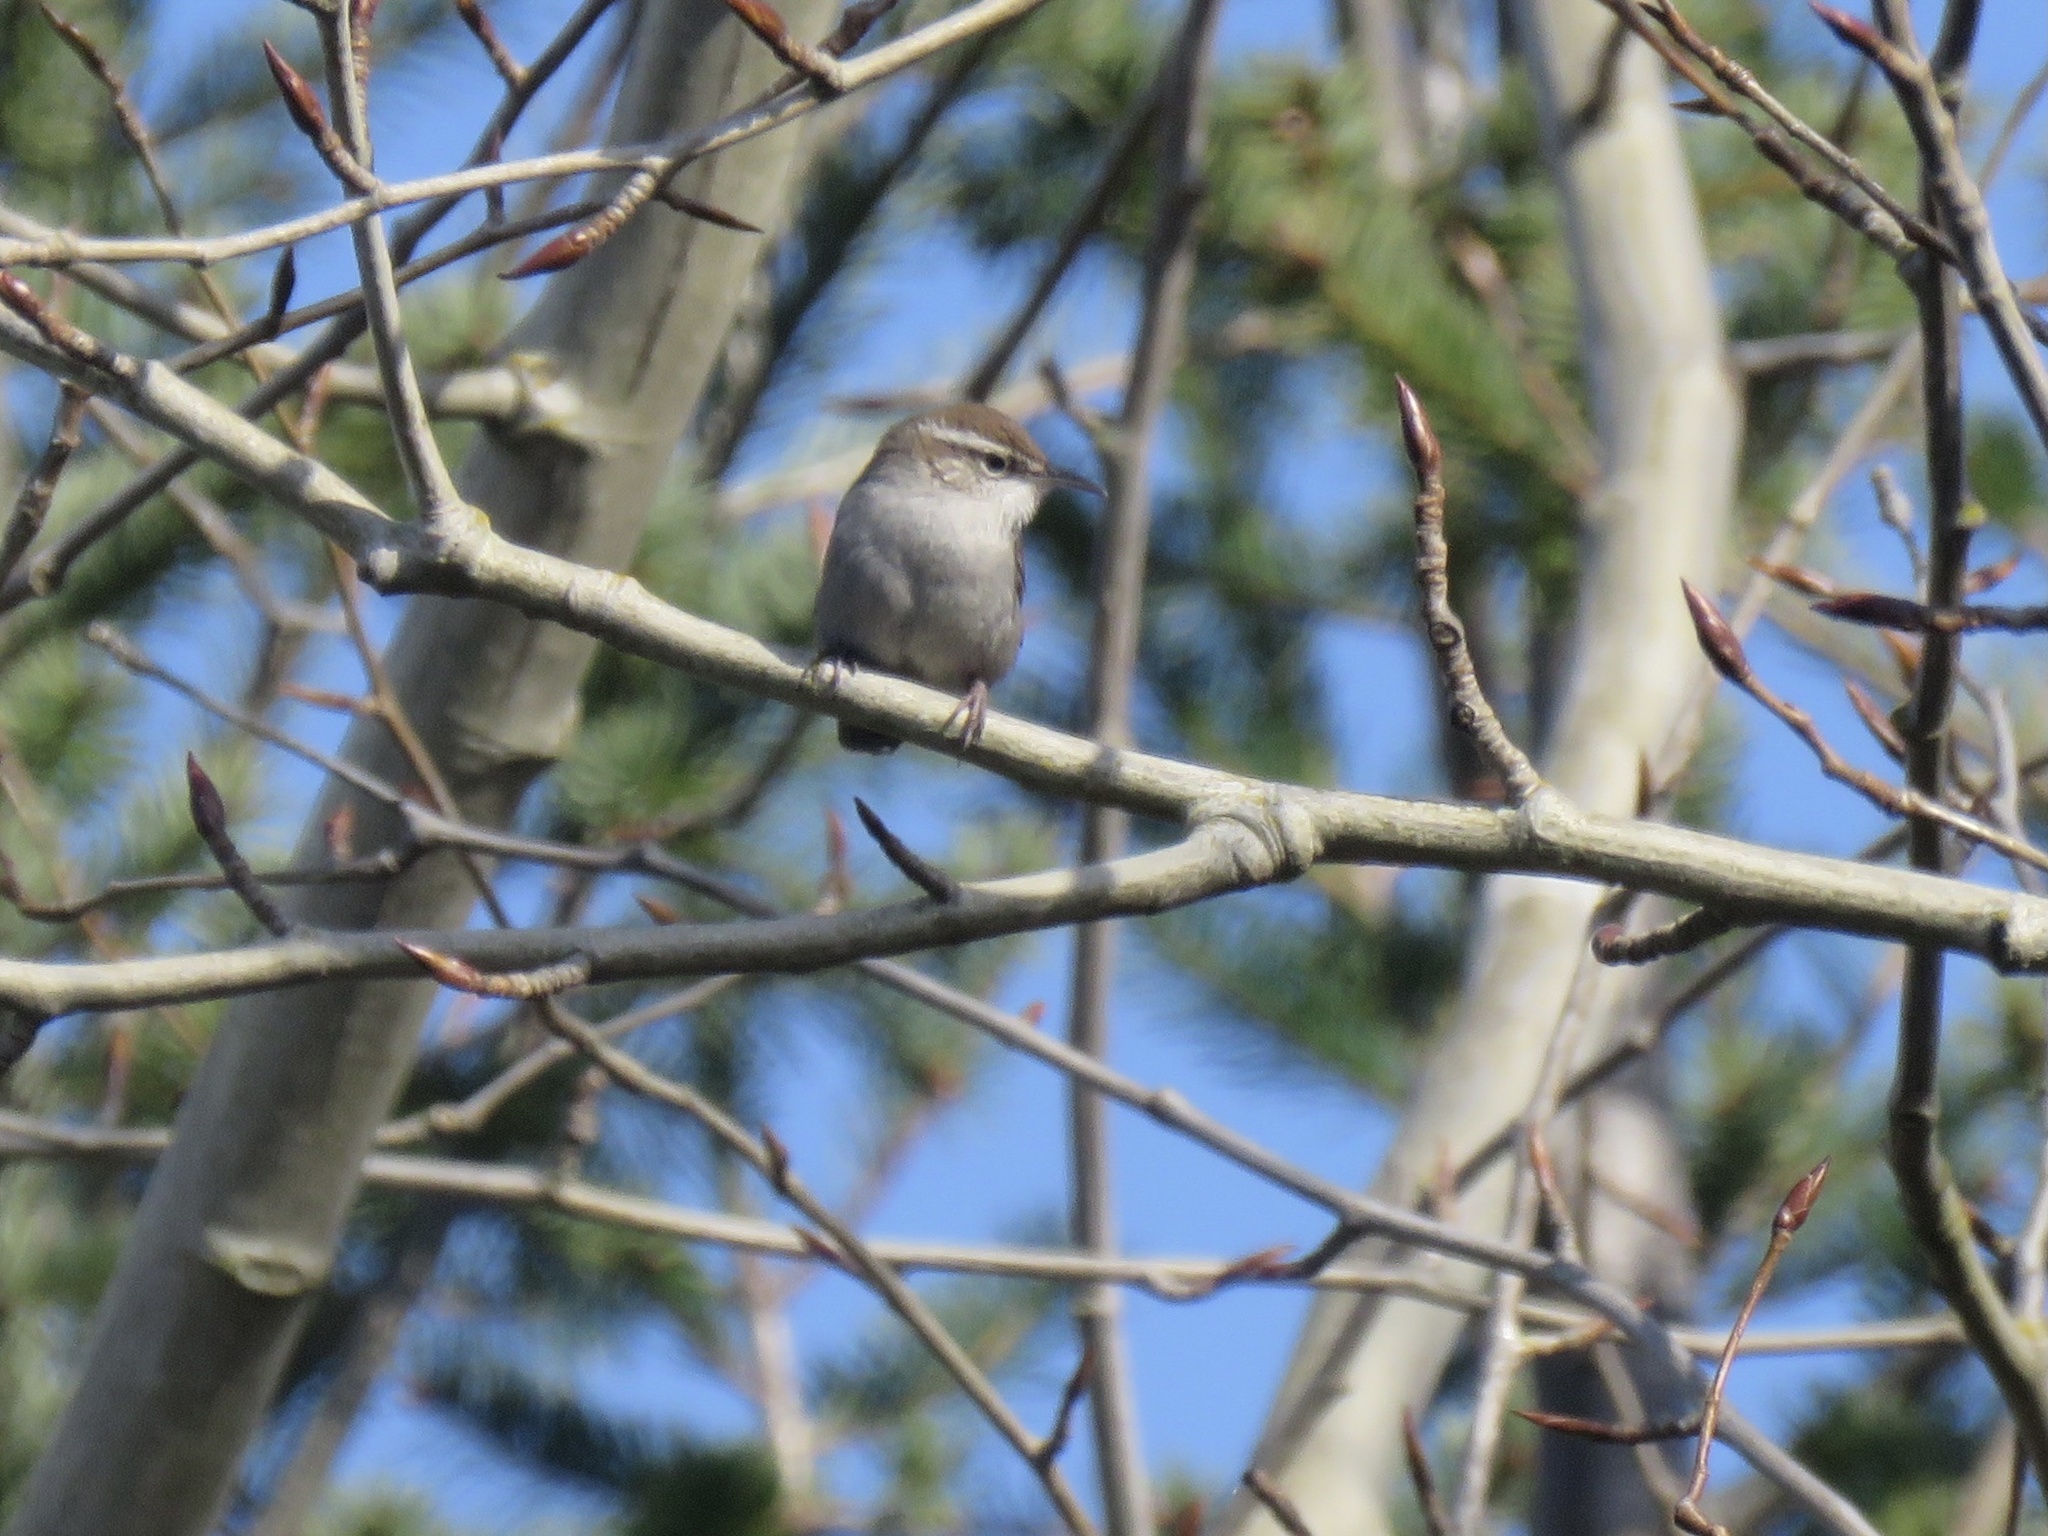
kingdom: Animalia
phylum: Chordata
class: Aves
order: Passeriformes
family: Troglodytidae
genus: Thryomanes
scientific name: Thryomanes bewickii
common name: Bewick's wren
